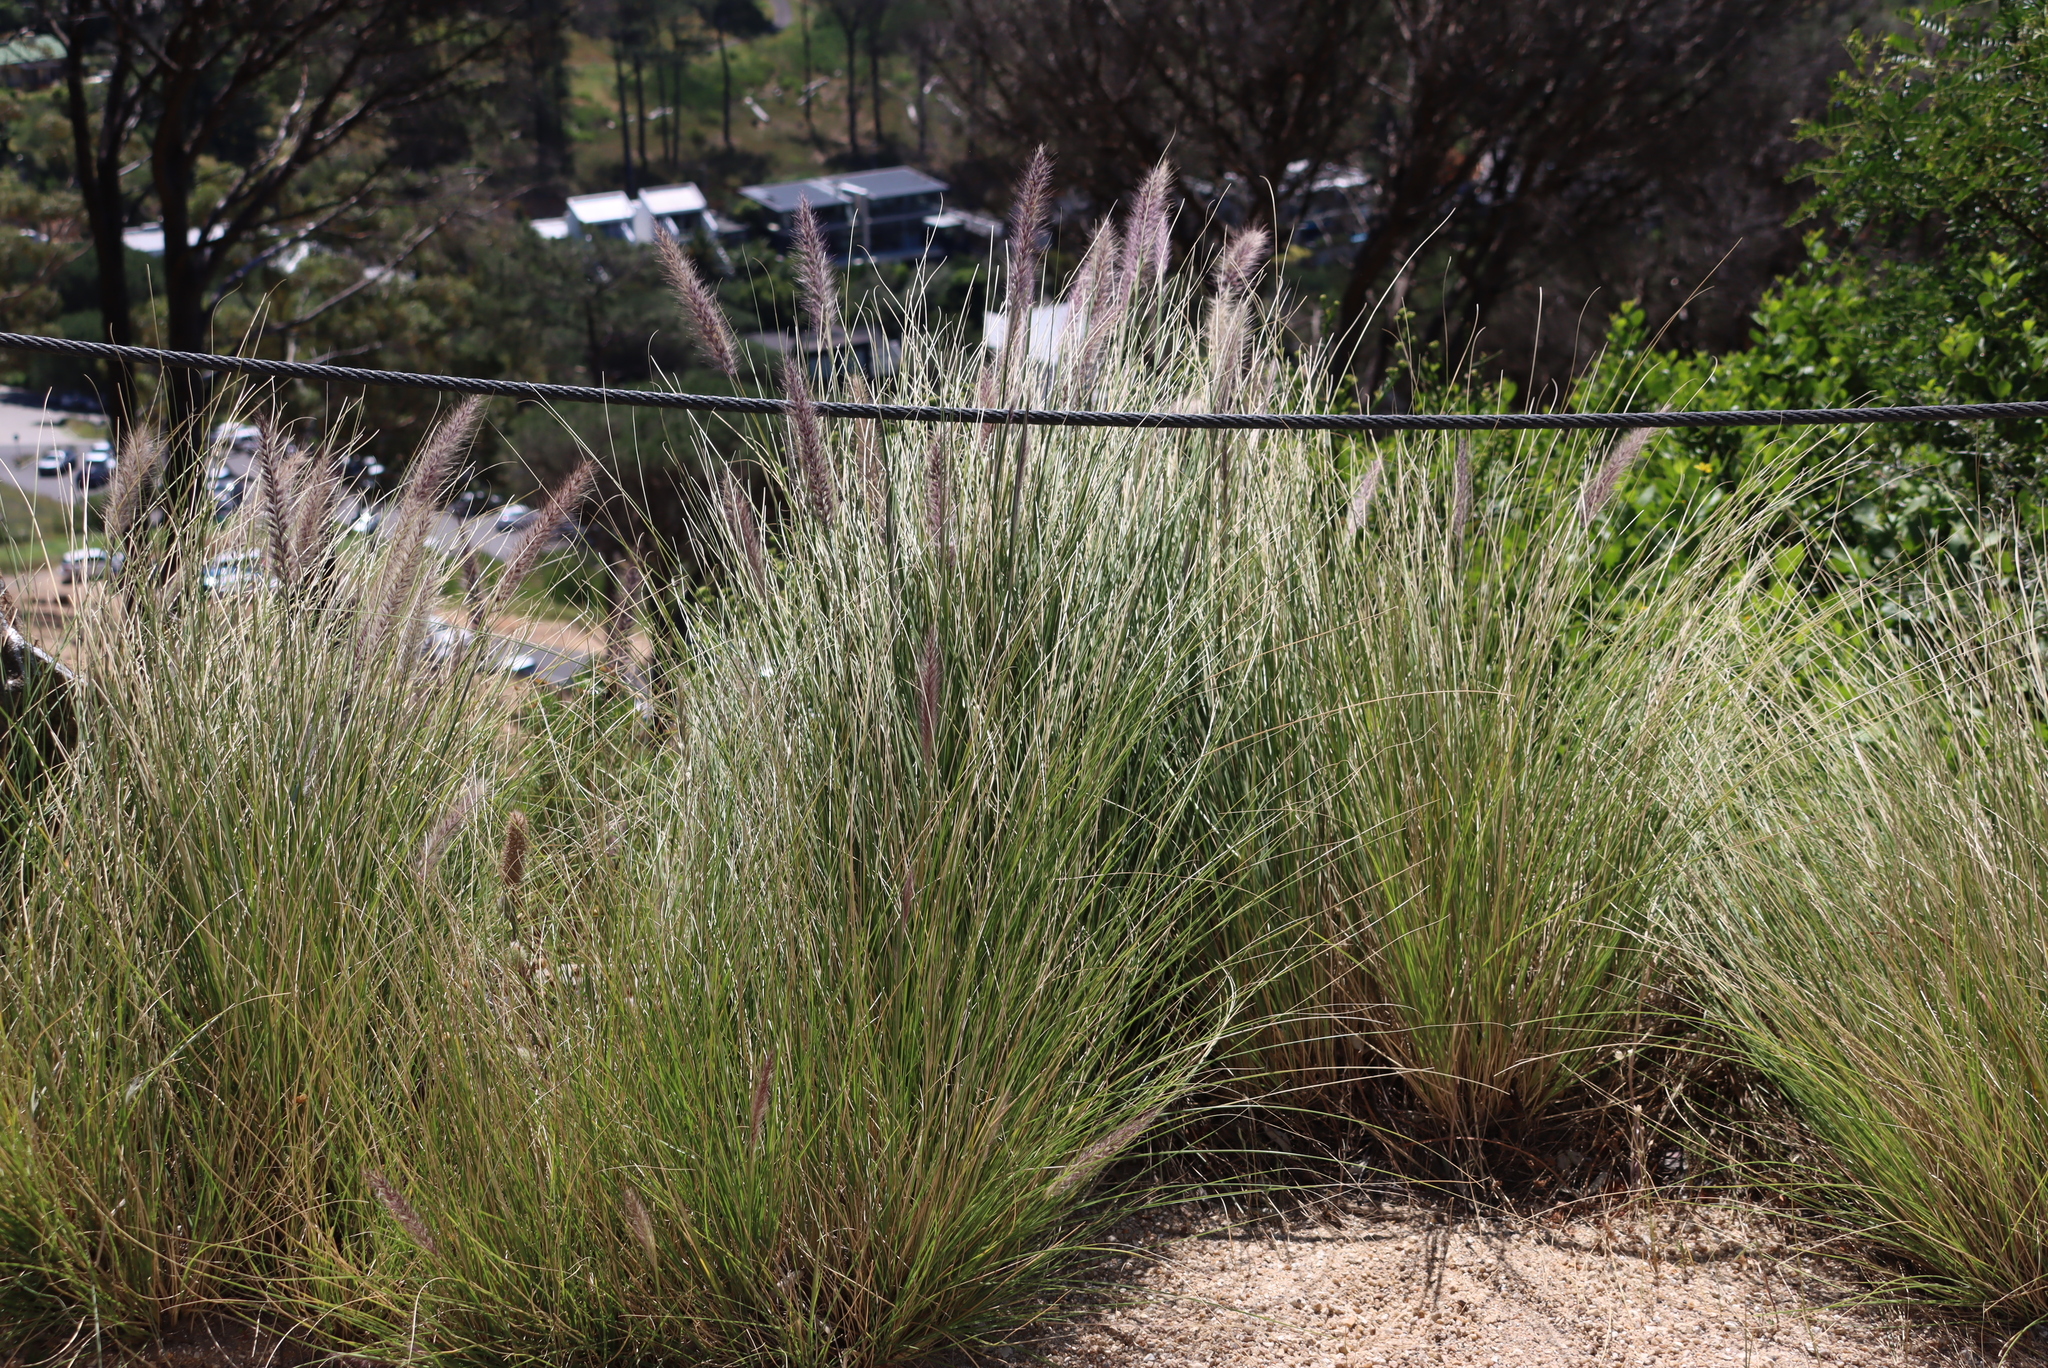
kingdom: Plantae
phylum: Tracheophyta
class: Liliopsida
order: Poales
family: Poaceae
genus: Cenchrus
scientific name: Cenchrus setaceus
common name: Crimson fountaingrass
